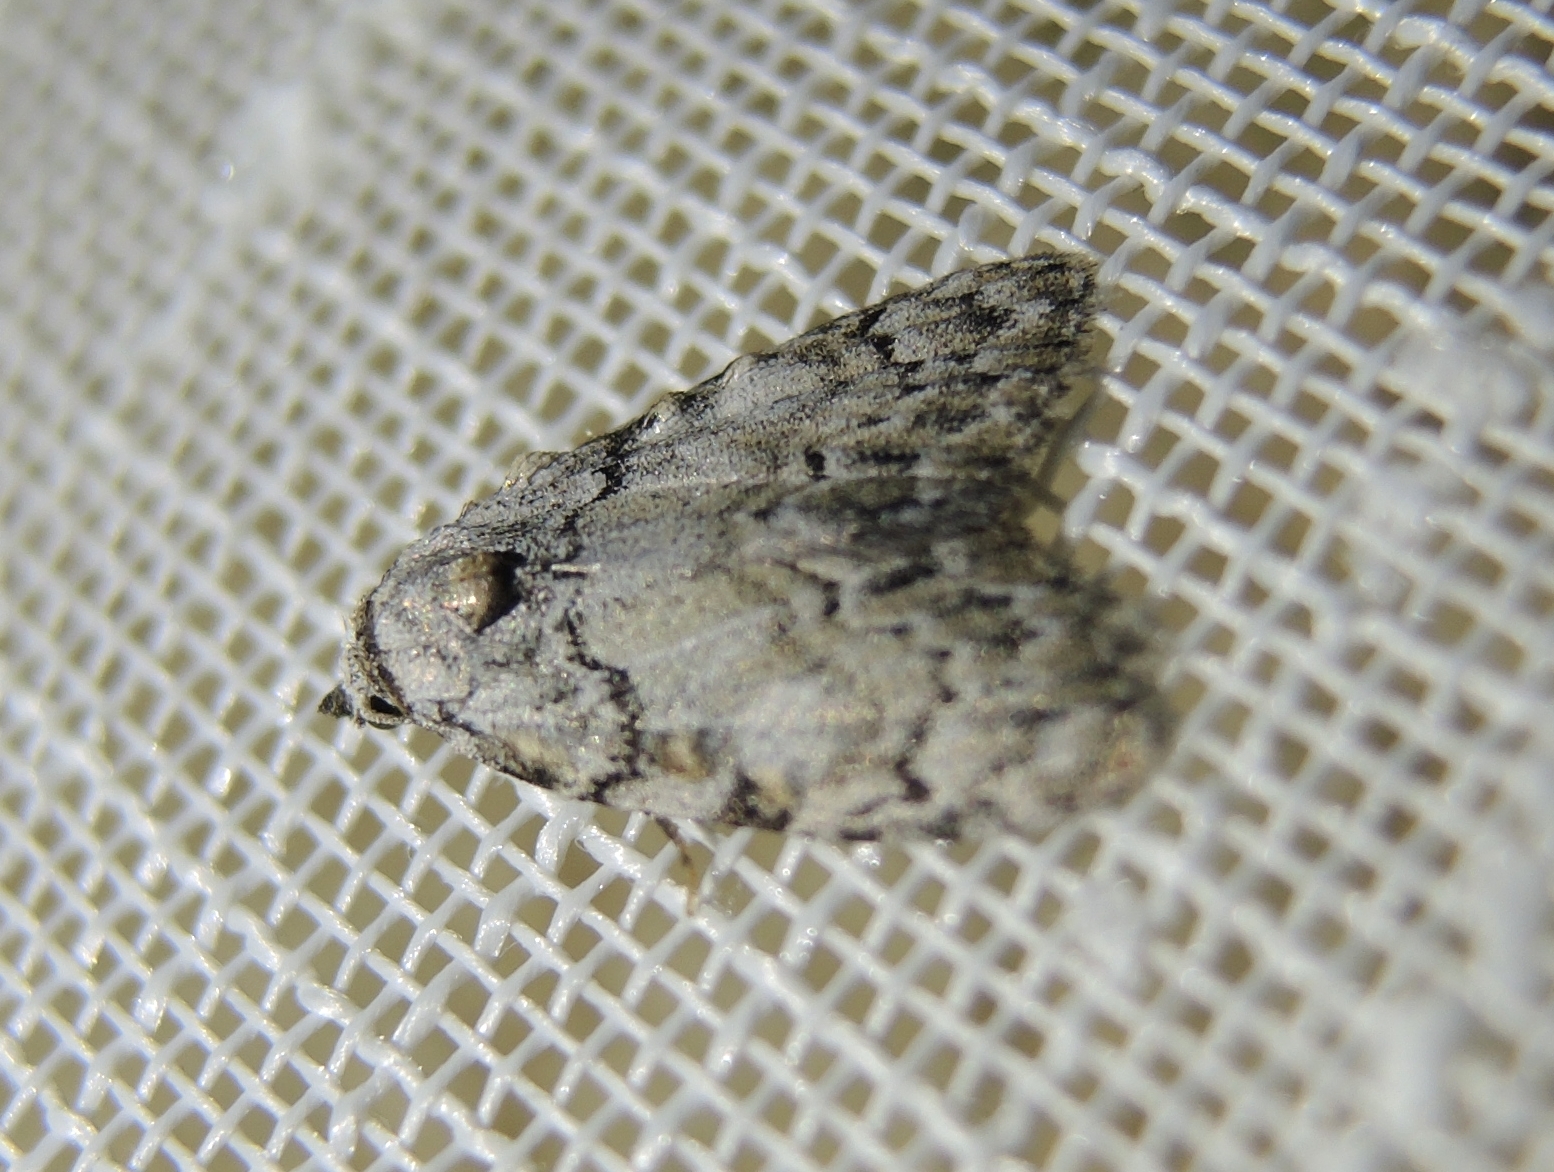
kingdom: Animalia
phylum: Arthropoda
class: Insecta
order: Lepidoptera
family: Nolidae
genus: Meganola
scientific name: Meganola strigula
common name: Small black arches
